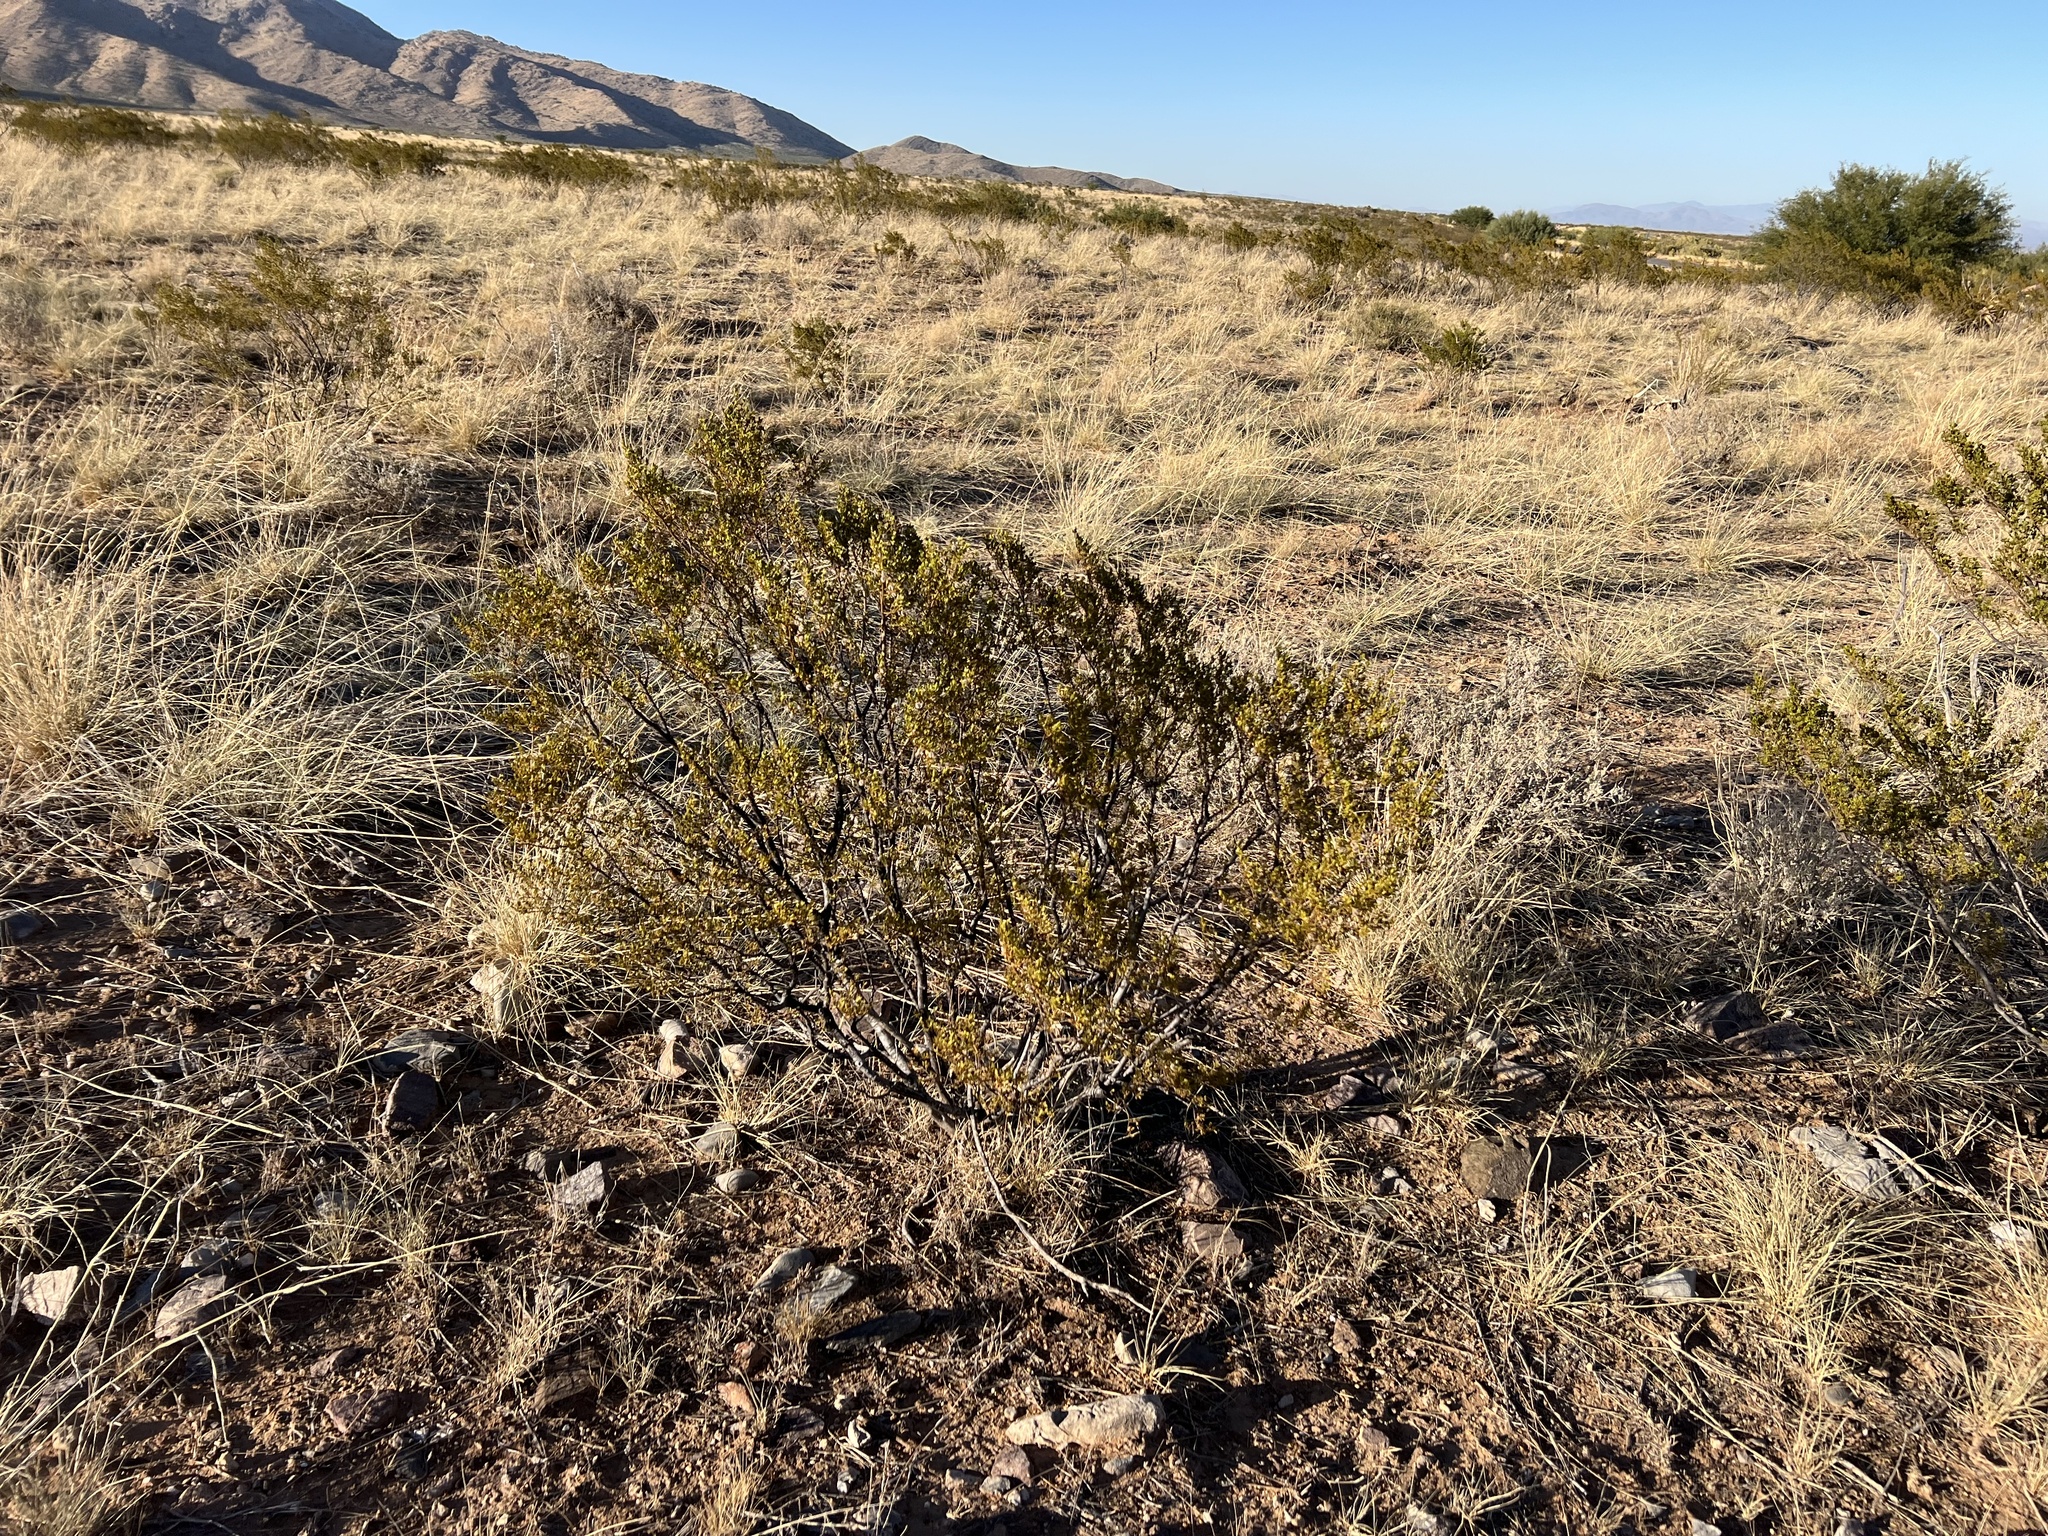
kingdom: Plantae
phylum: Tracheophyta
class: Magnoliopsida
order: Zygophyllales
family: Zygophyllaceae
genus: Larrea
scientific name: Larrea tridentata
